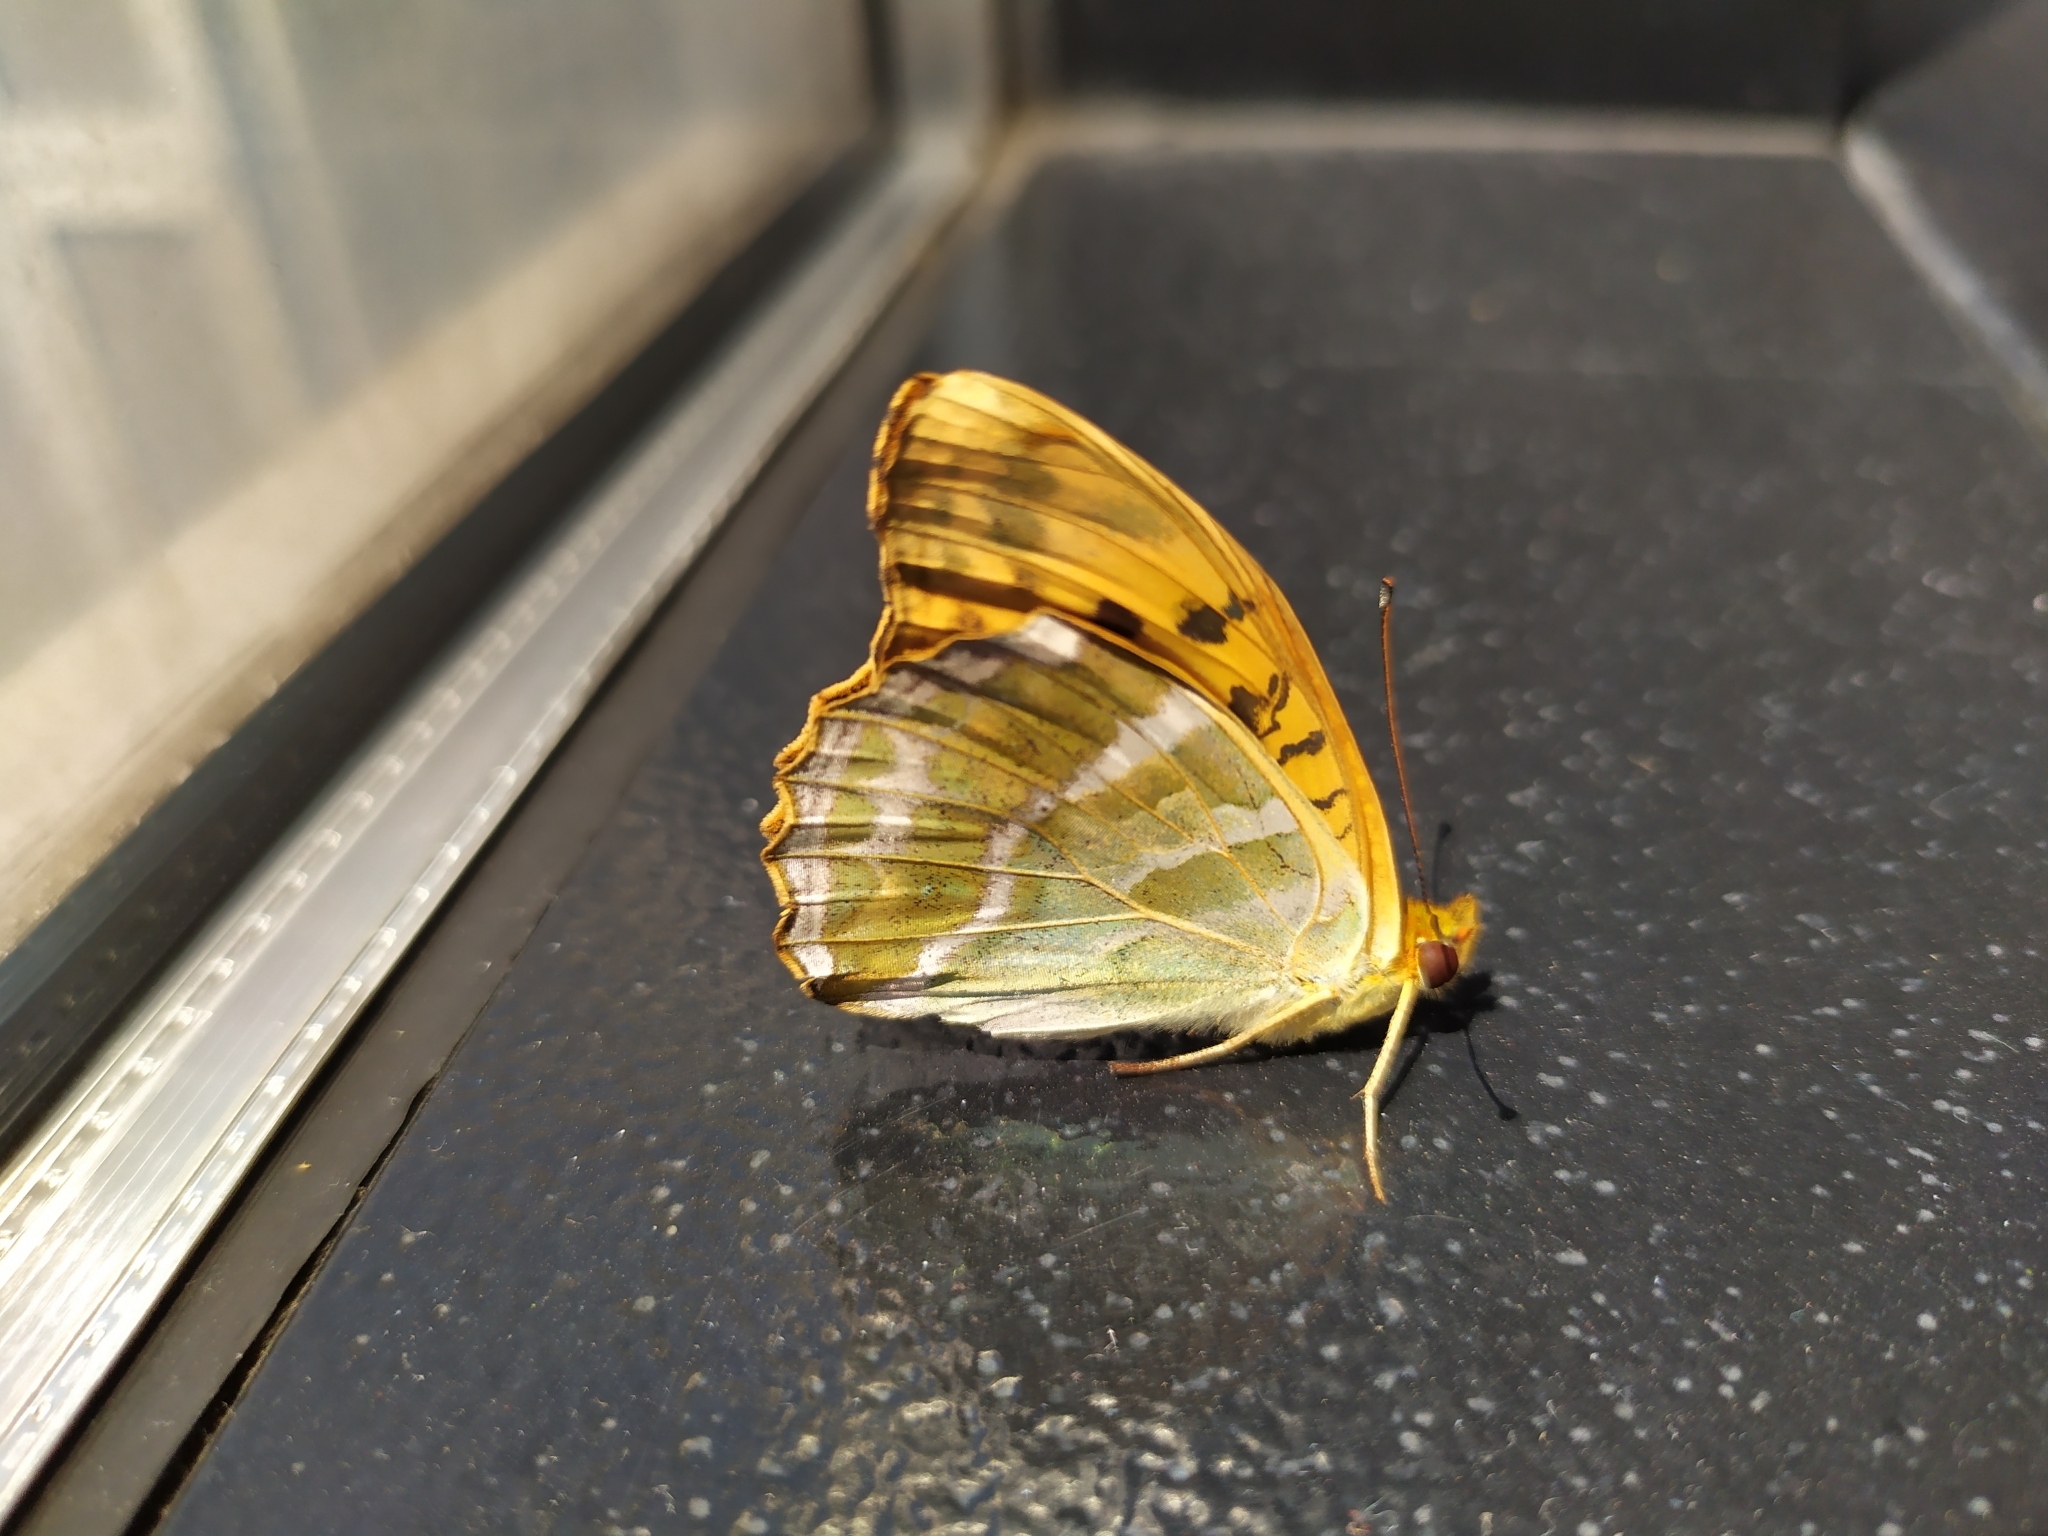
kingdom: Animalia
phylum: Arthropoda
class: Insecta
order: Lepidoptera
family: Nymphalidae
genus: Argynnis
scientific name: Argynnis paphia
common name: Silver-washed fritillary
